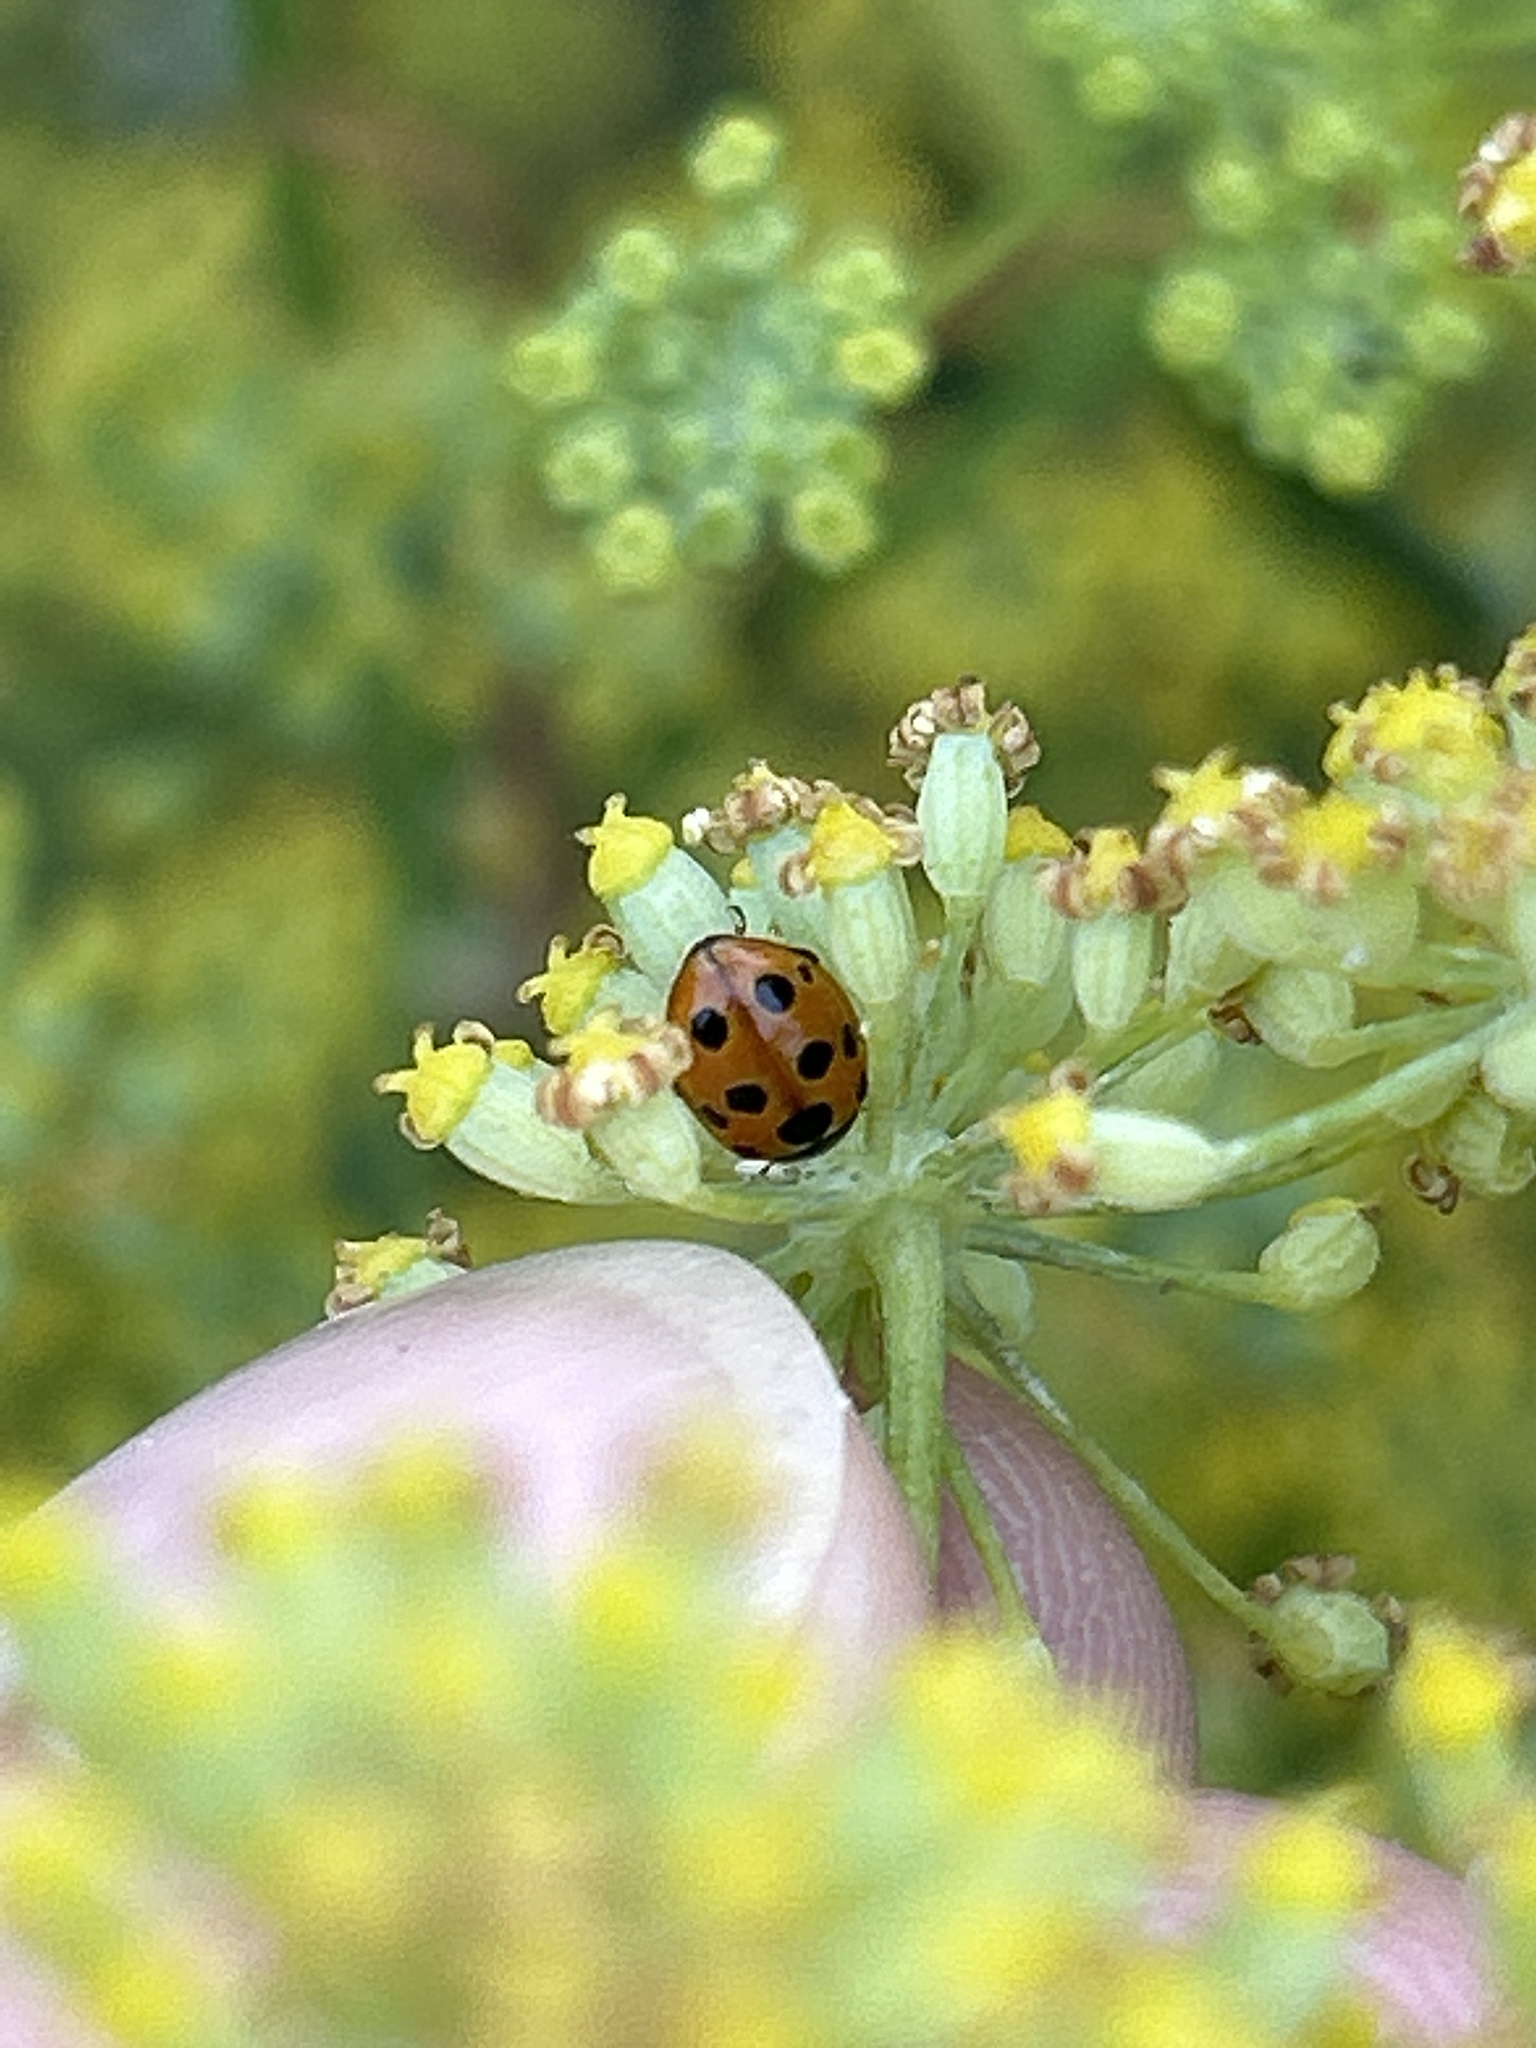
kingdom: Animalia
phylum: Arthropoda
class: Insecta
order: Coleoptera
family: Coccinellidae
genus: Coccinella
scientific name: Coccinella undecimpunctata
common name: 11-spot ladybird
